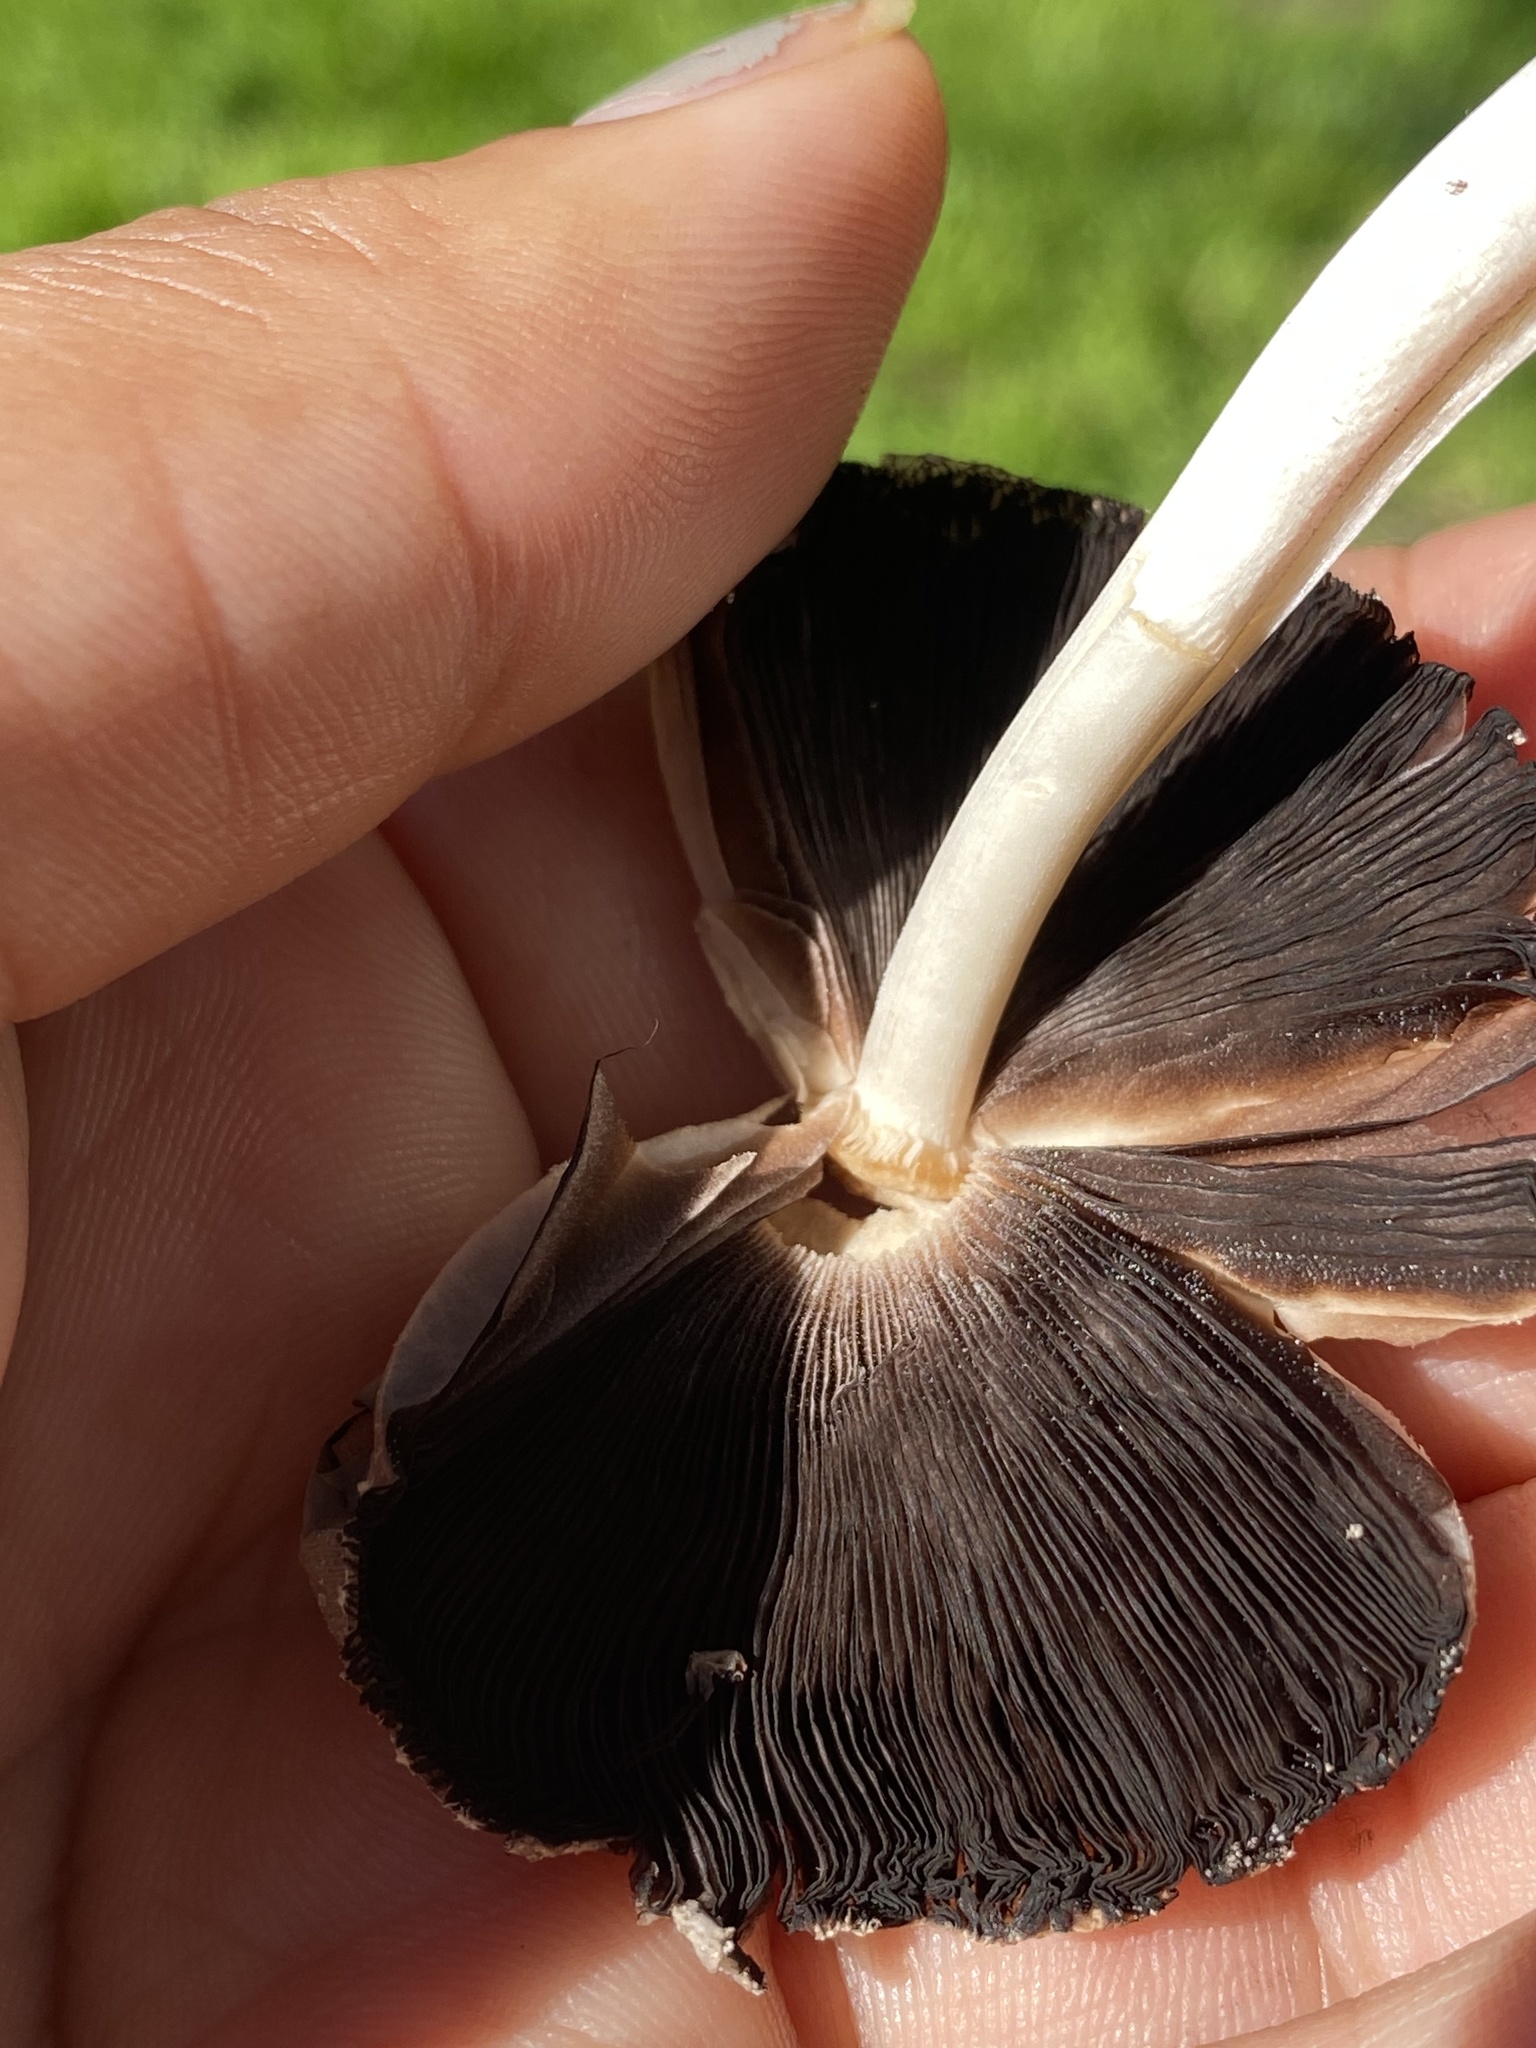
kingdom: Fungi
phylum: Basidiomycota
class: Agaricomycetes
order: Agaricales
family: Psathyrellaceae
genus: Coprinellus
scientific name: Coprinellus micaceus
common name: Glistening ink-cap
